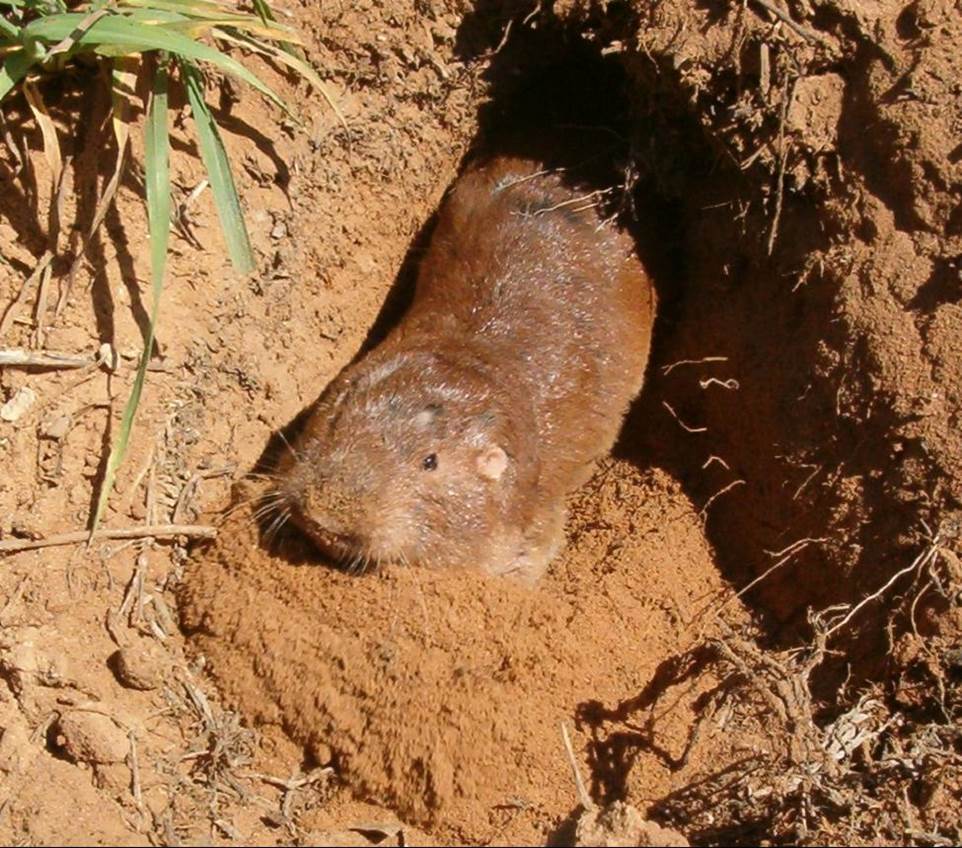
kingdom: Animalia
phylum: Chordata
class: Mammalia
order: Rodentia
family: Geomyidae
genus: Geomys
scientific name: Geomys bursarius
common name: Plains pocket gopher
